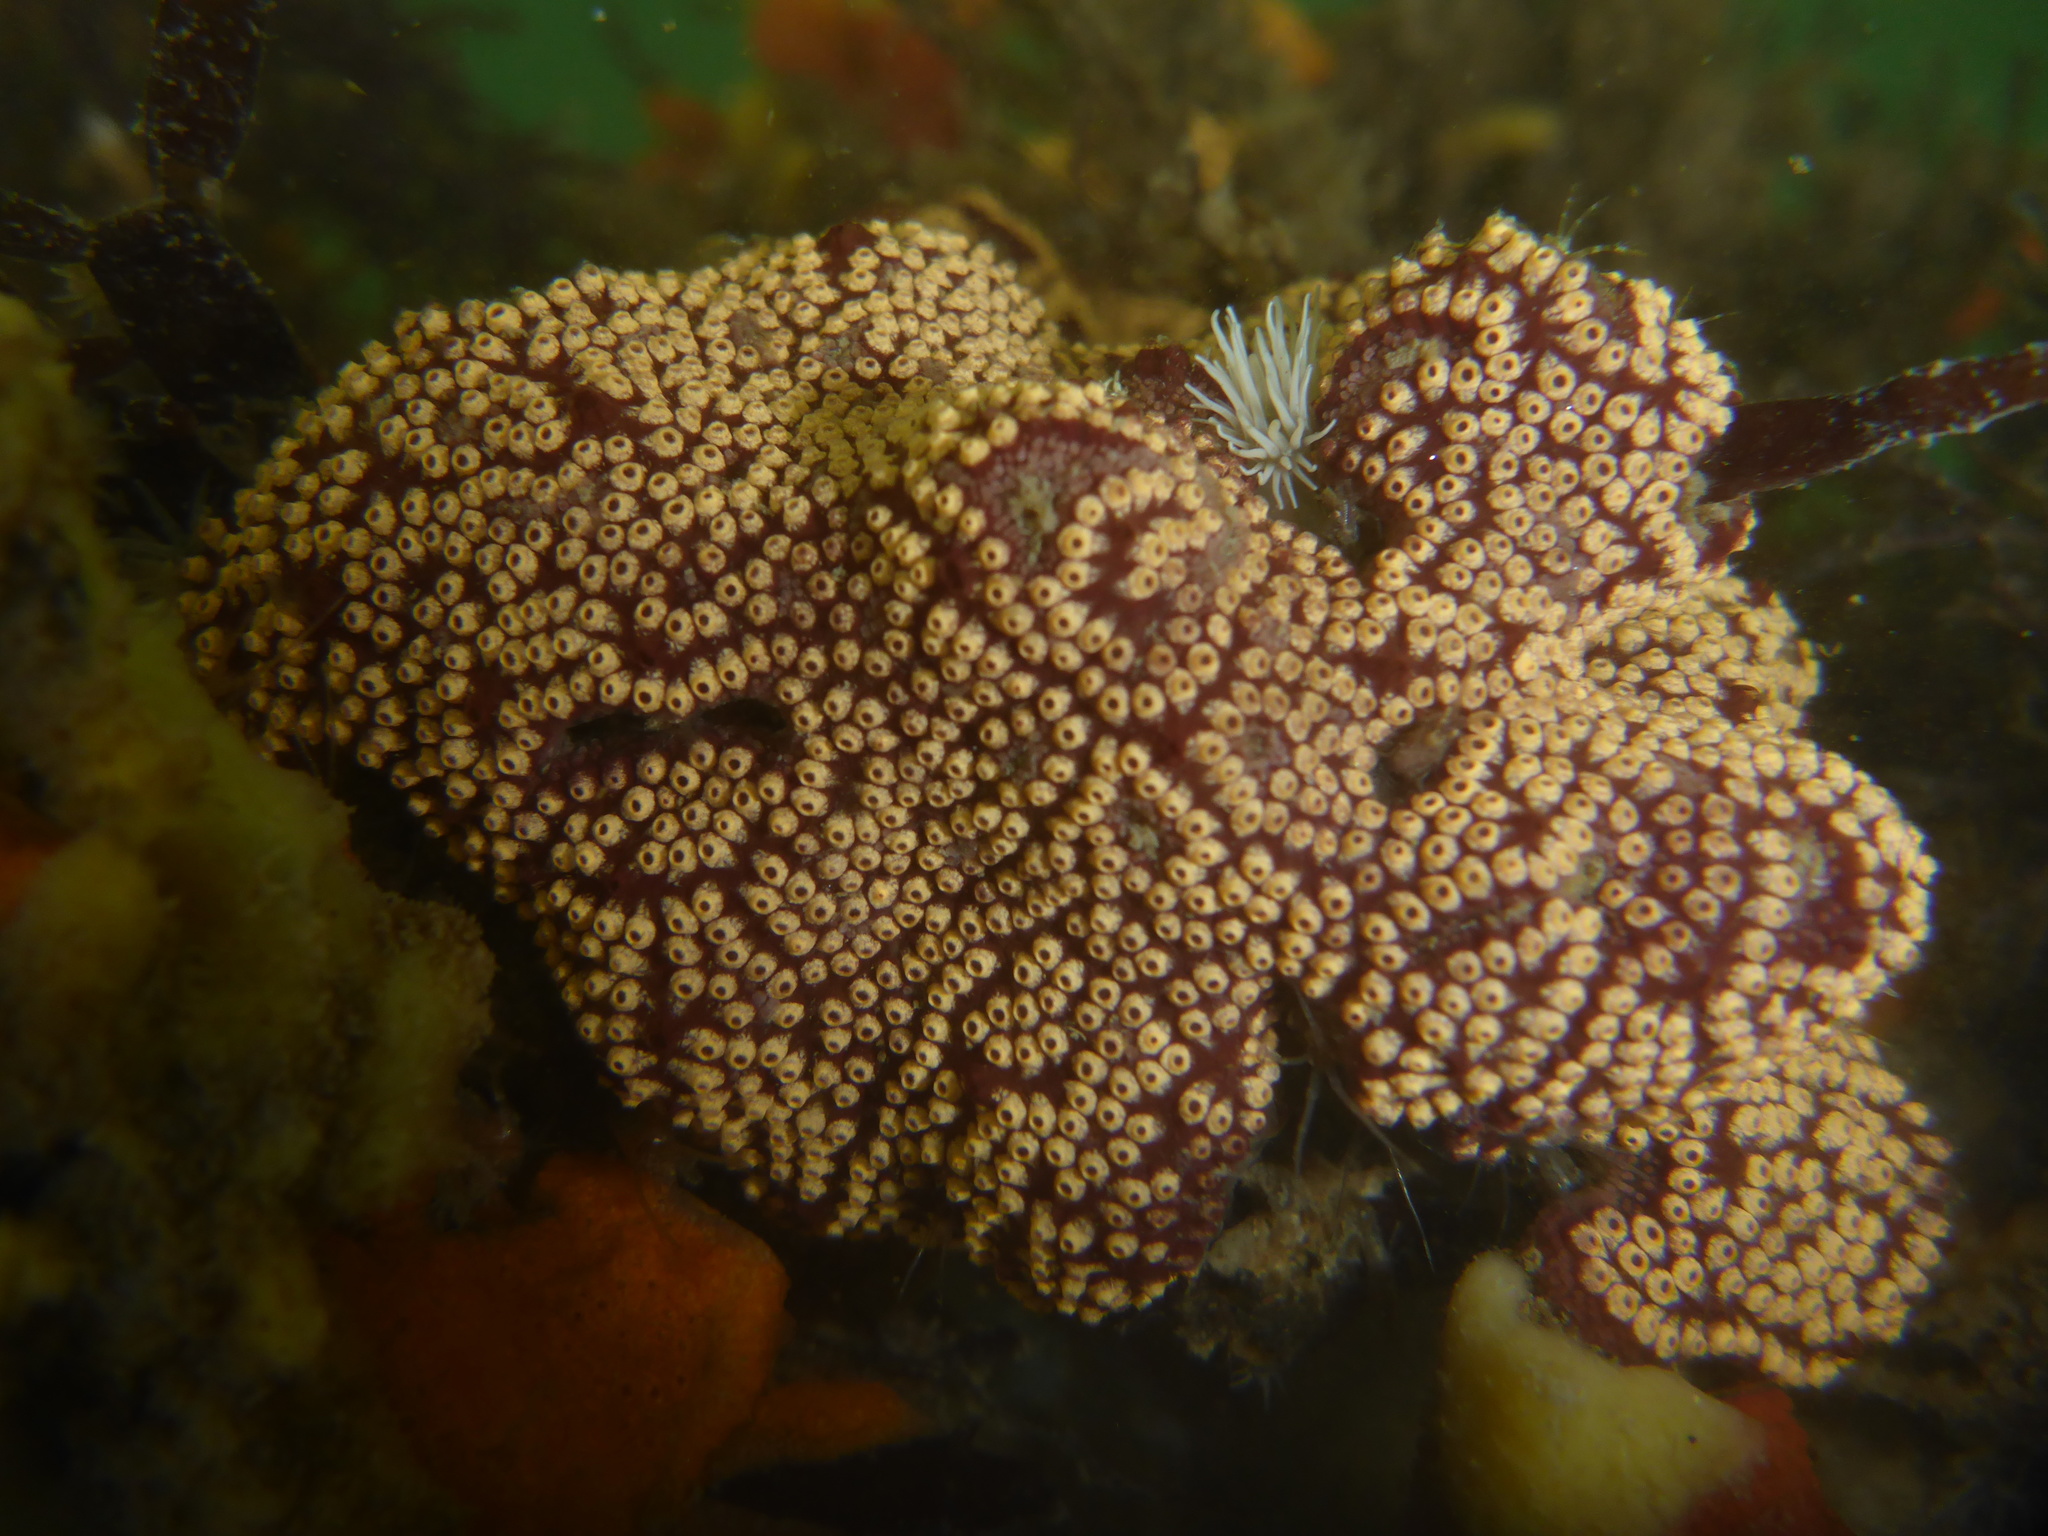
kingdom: Animalia
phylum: Chordata
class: Ascidiacea
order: Stolidobranchia
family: Styelidae
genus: Botrylloides
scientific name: Botrylloides diegensis
